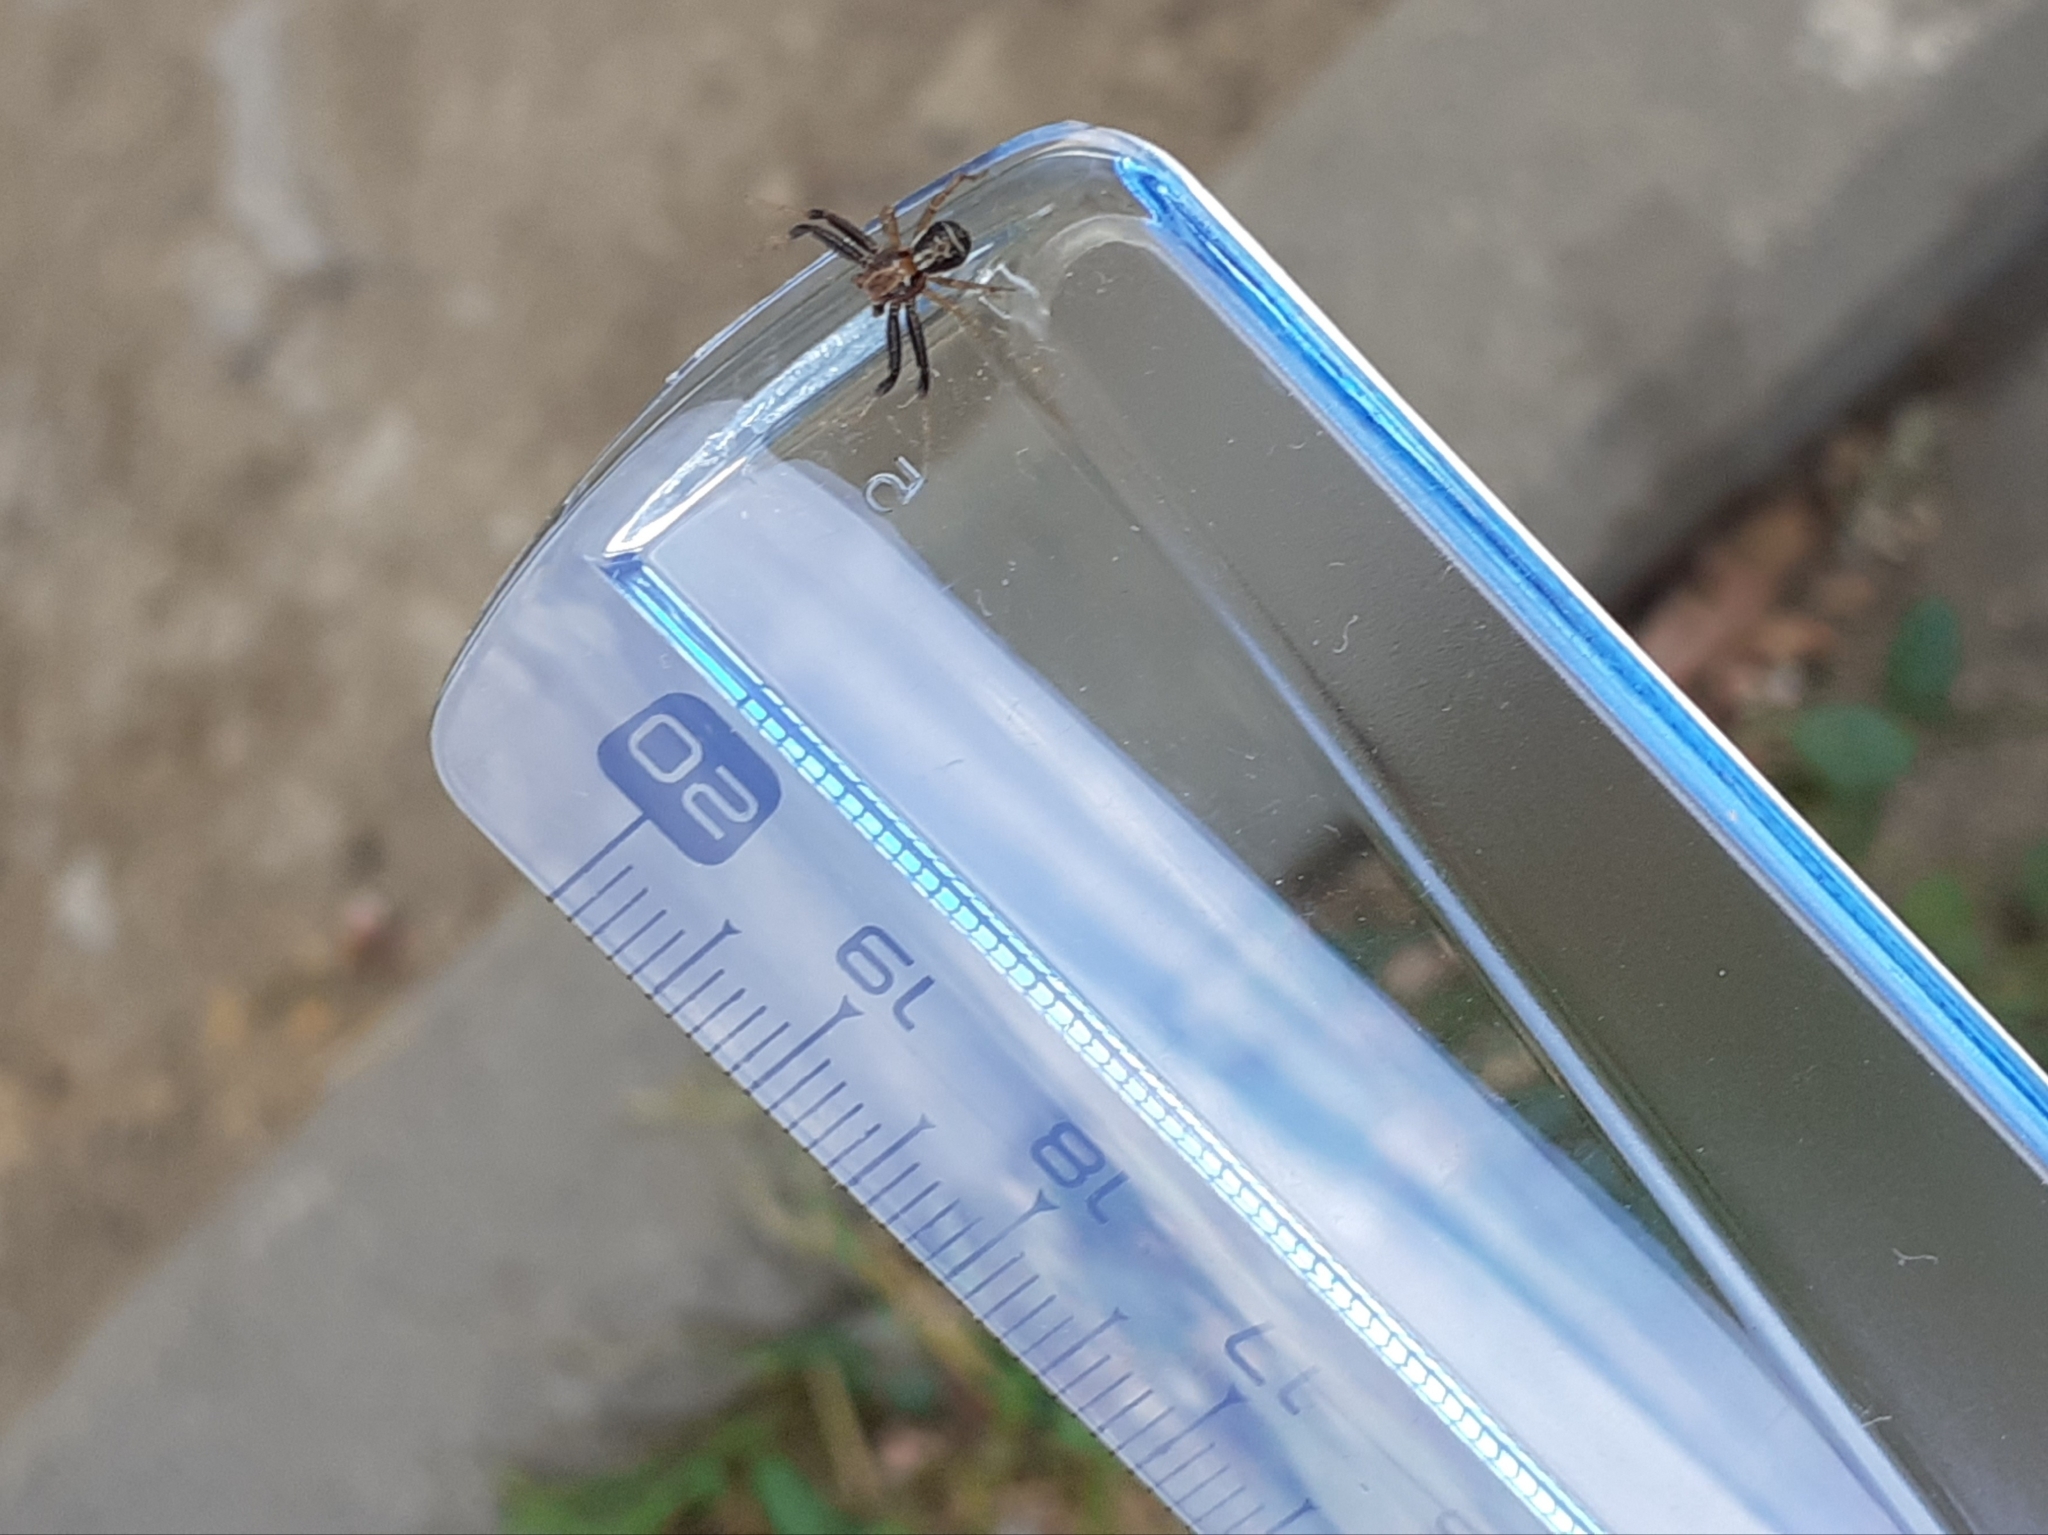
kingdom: Animalia
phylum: Arthropoda
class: Arachnida
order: Araneae
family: Thomisidae
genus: Xysticus
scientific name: Xysticus ulmi
